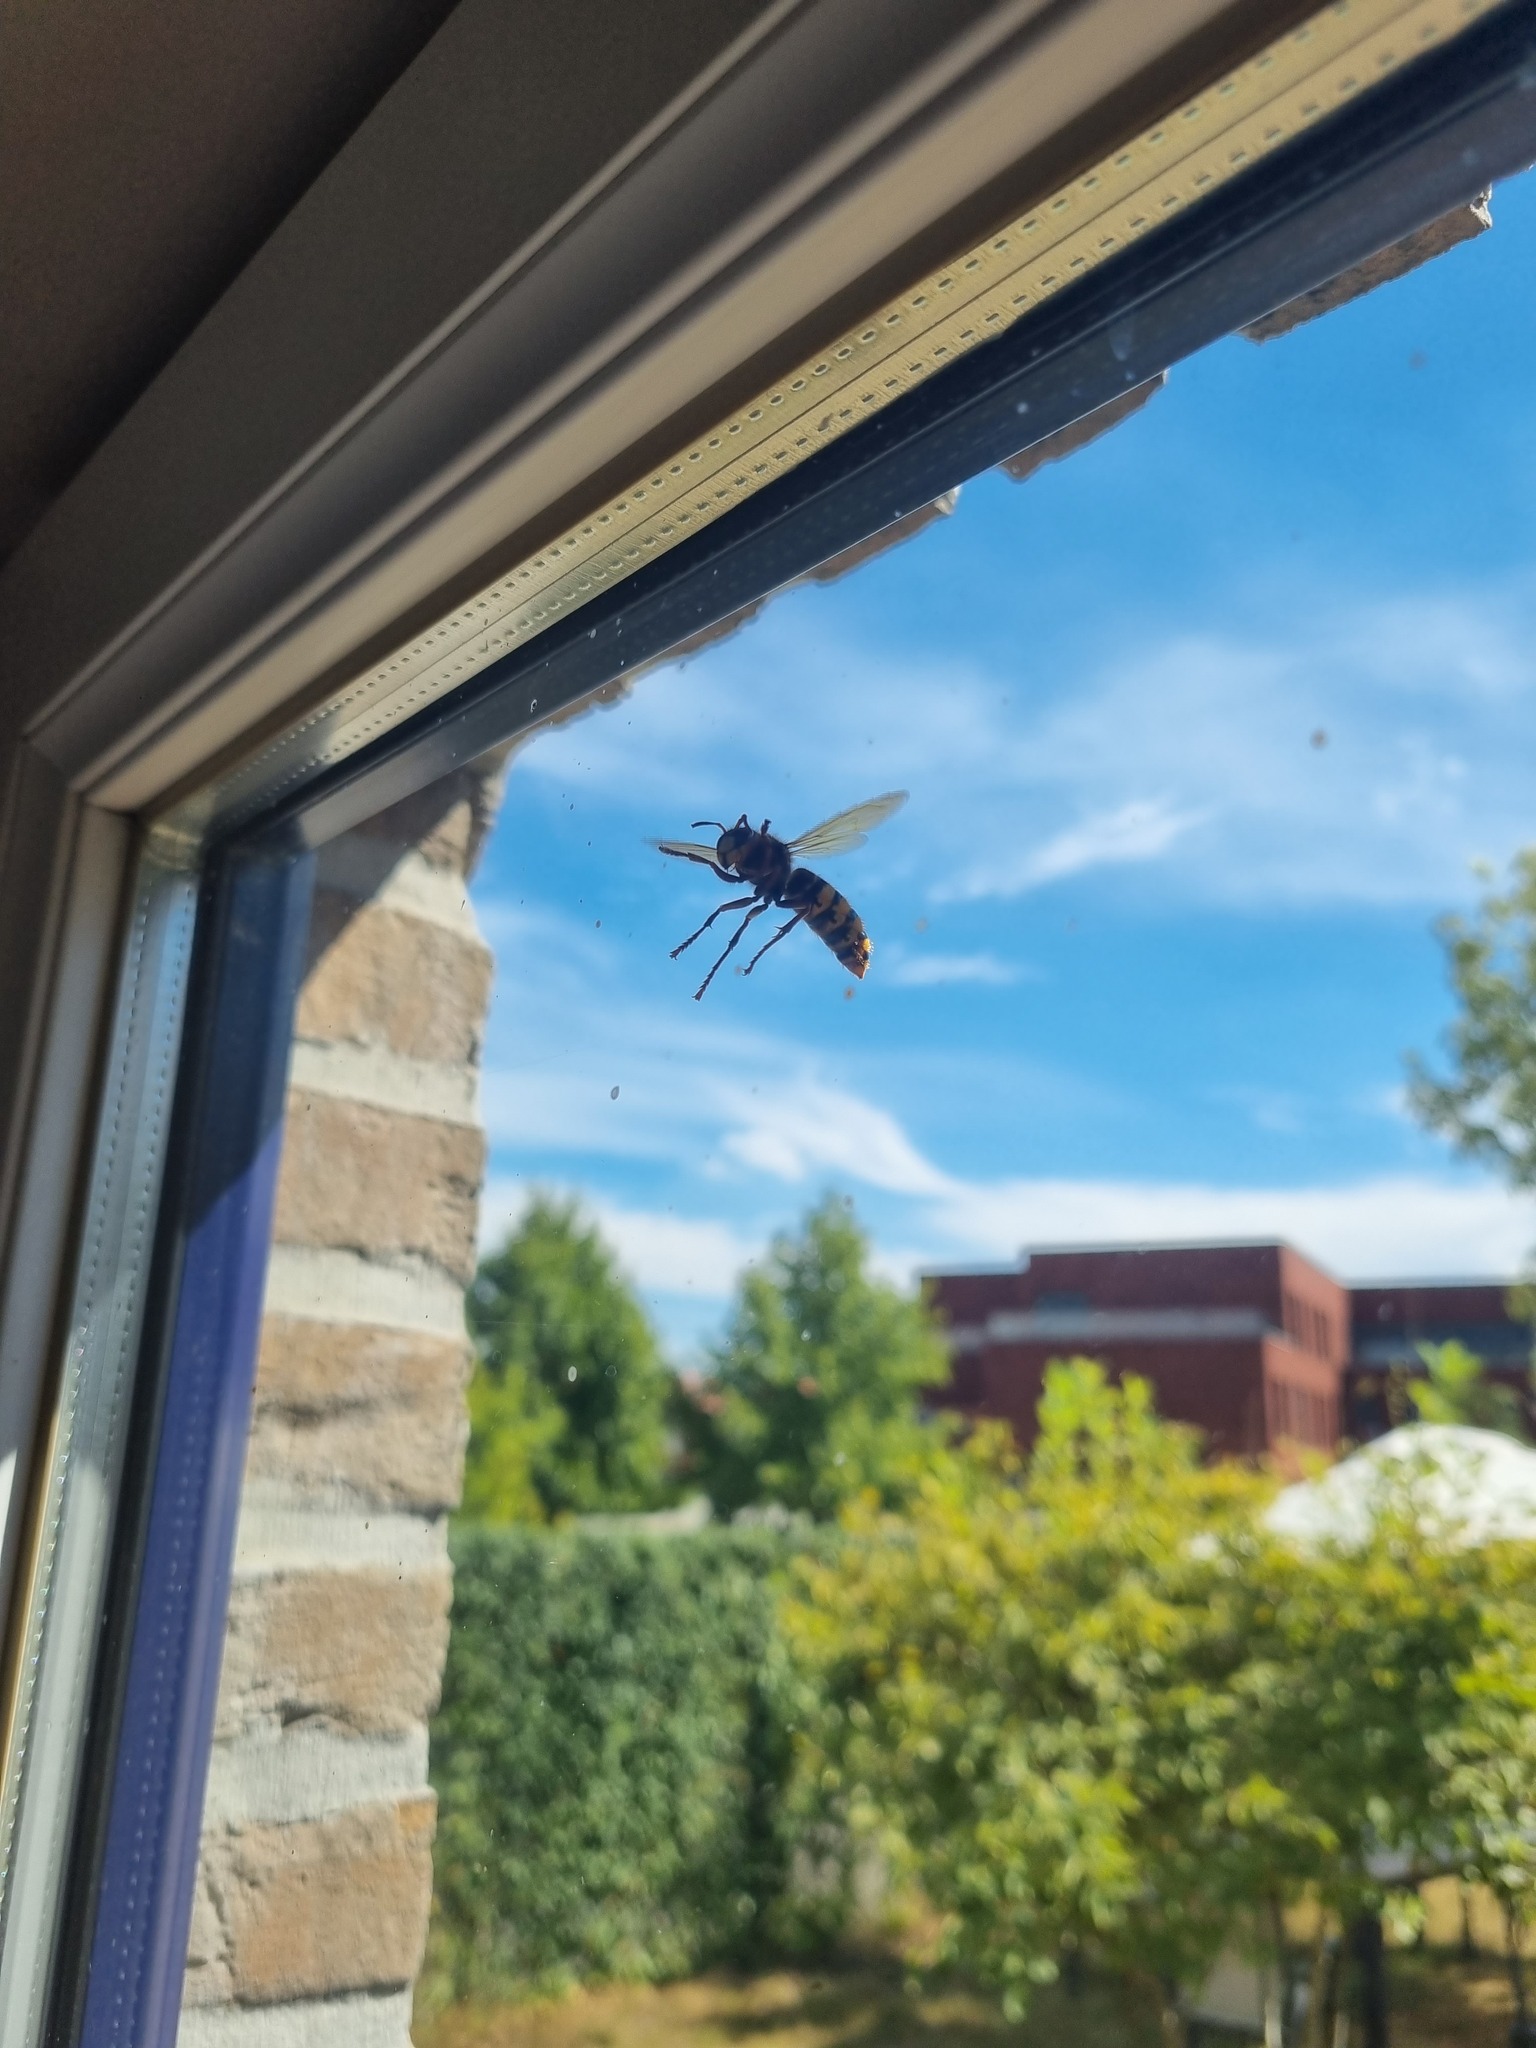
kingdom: Animalia
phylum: Arthropoda
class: Insecta
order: Hymenoptera
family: Vespidae
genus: Vespa
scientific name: Vespa crabro
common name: Hornet
